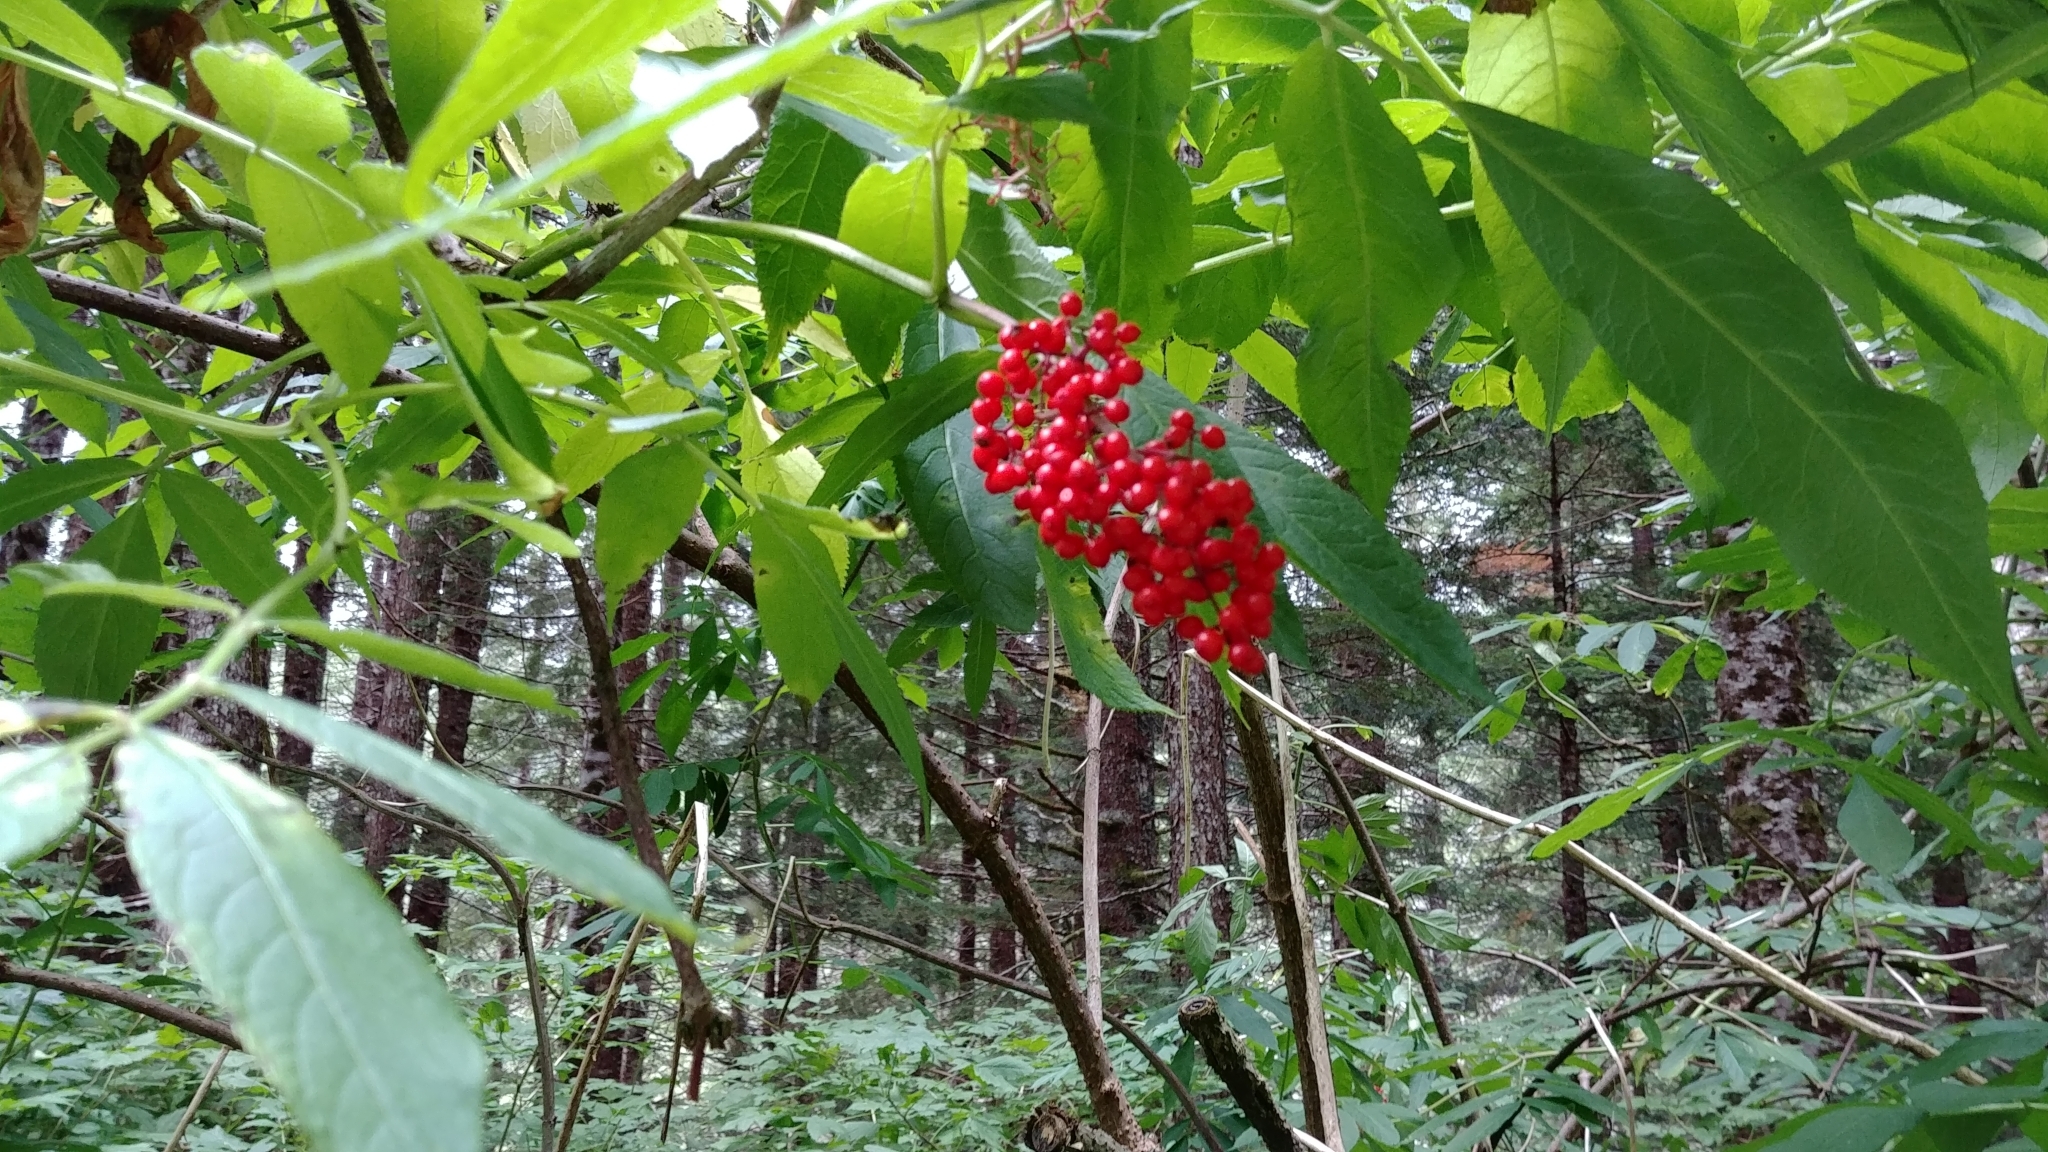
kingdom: Plantae
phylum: Tracheophyta
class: Magnoliopsida
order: Dipsacales
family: Viburnaceae
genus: Sambucus
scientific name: Sambucus racemosa
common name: Red-berried elder
